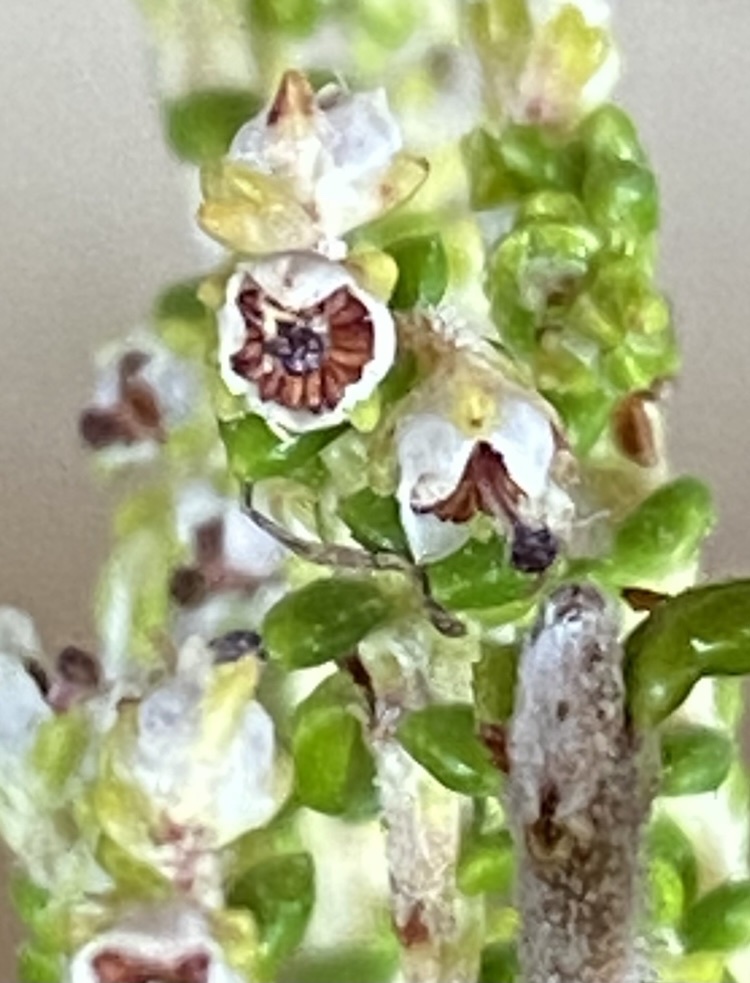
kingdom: Plantae
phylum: Tracheophyta
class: Magnoliopsida
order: Ericales
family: Ericaceae
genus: Erica
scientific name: Erica arenaria
